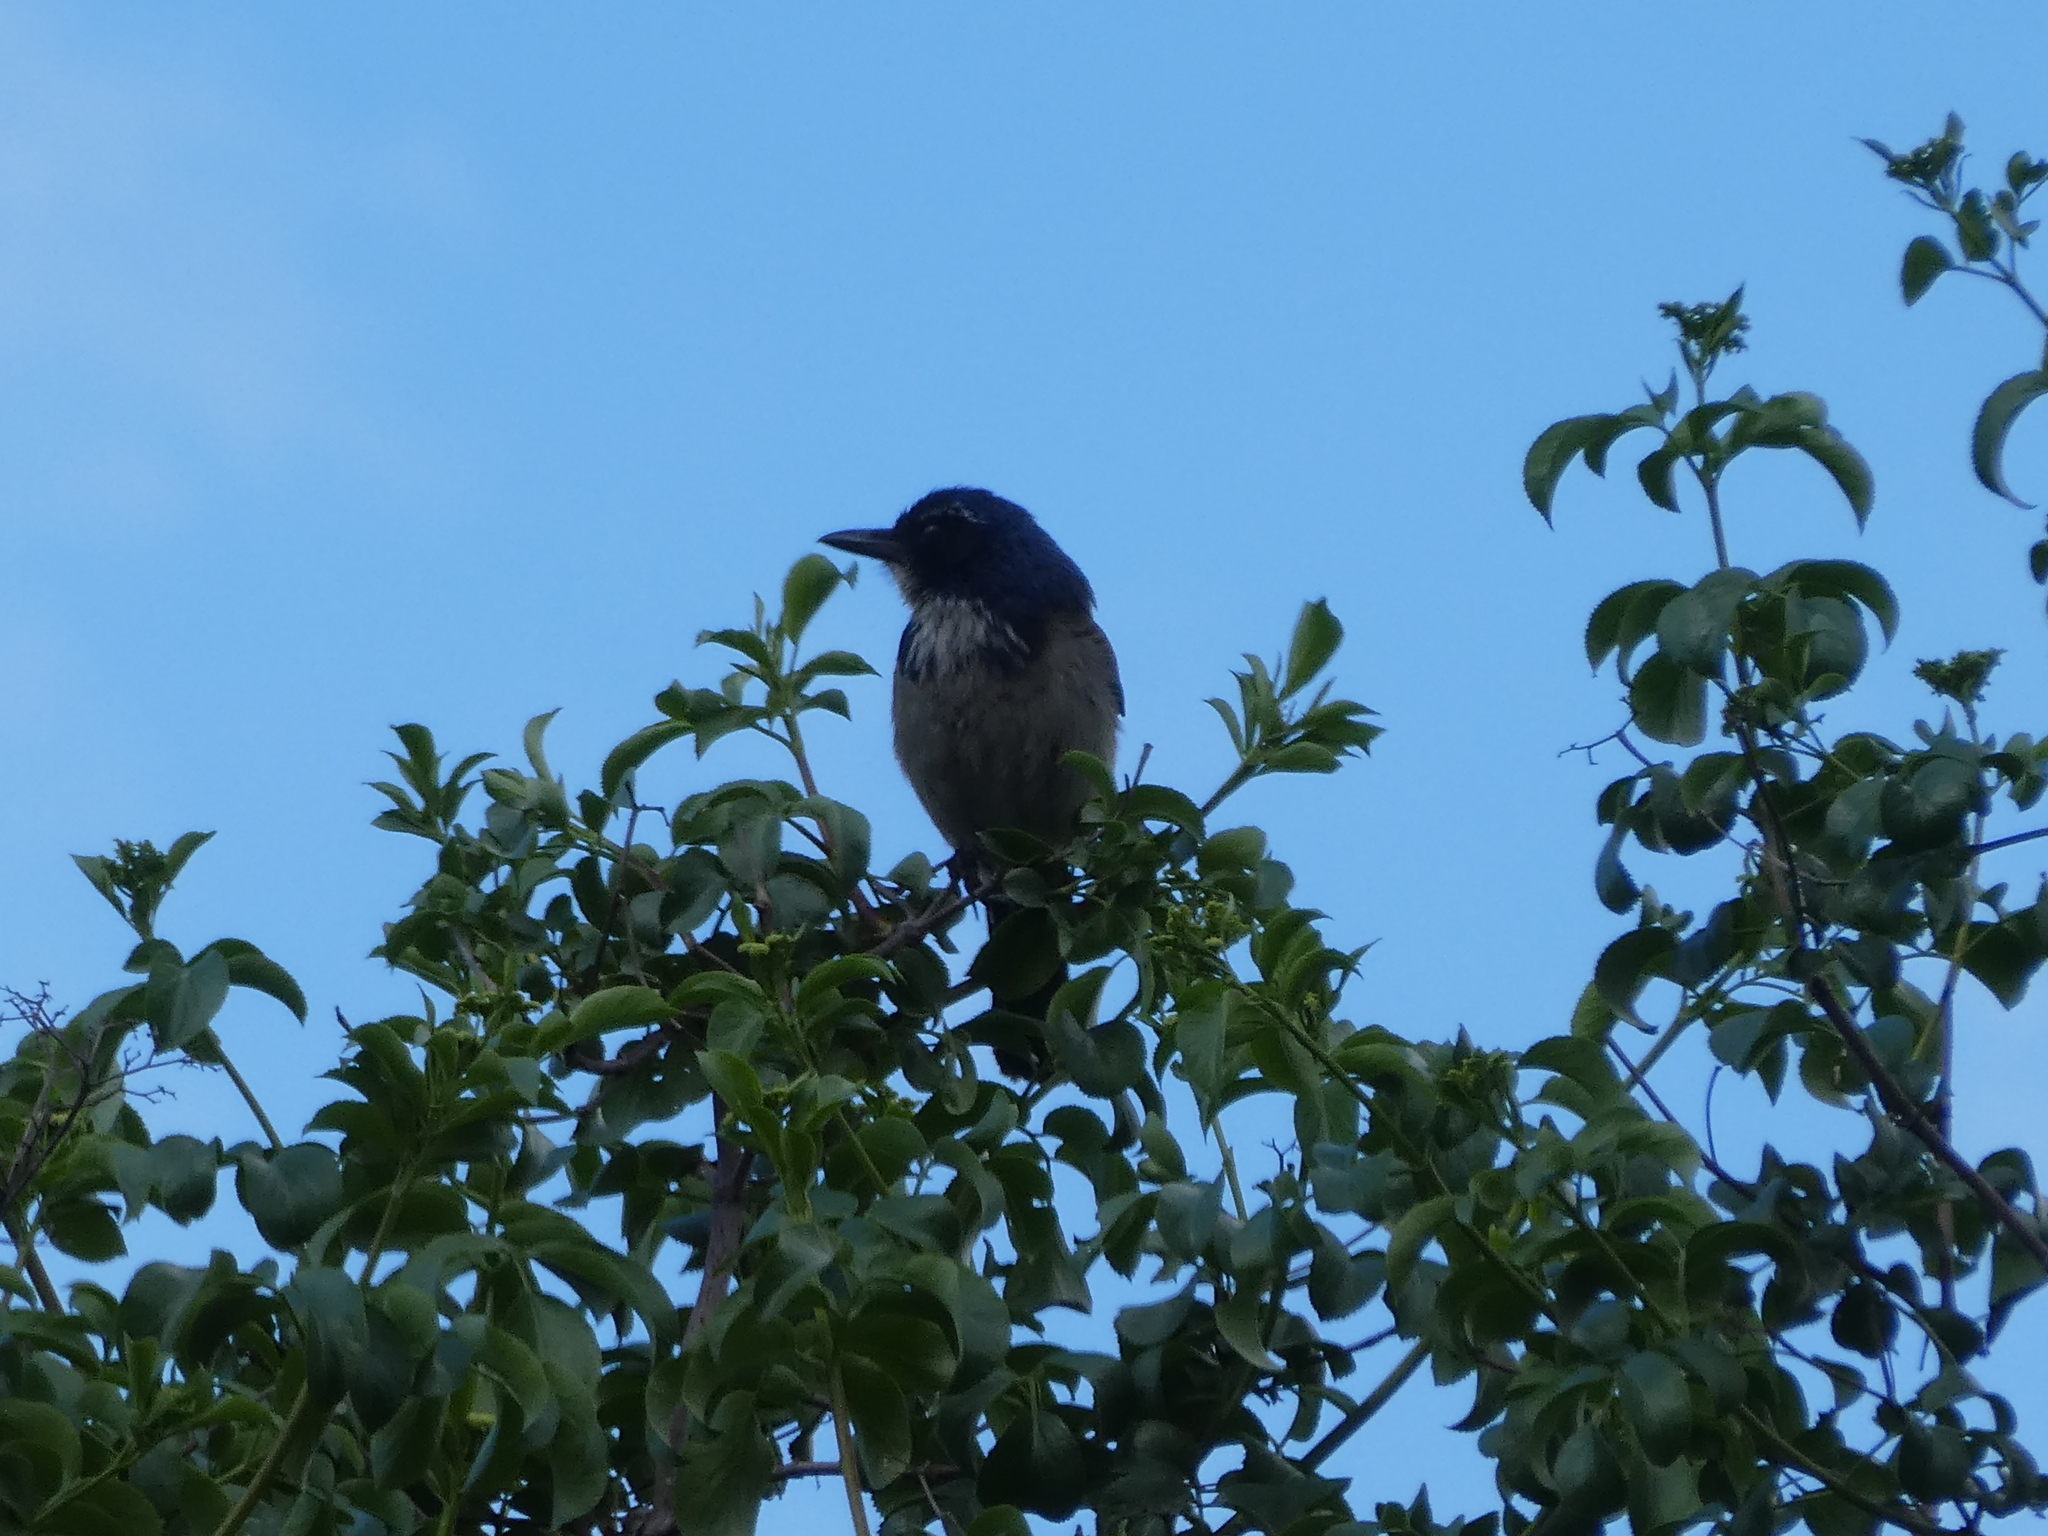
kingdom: Animalia
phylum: Chordata
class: Aves
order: Passeriformes
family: Corvidae
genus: Aphelocoma
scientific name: Aphelocoma californica
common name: California scrub-jay
